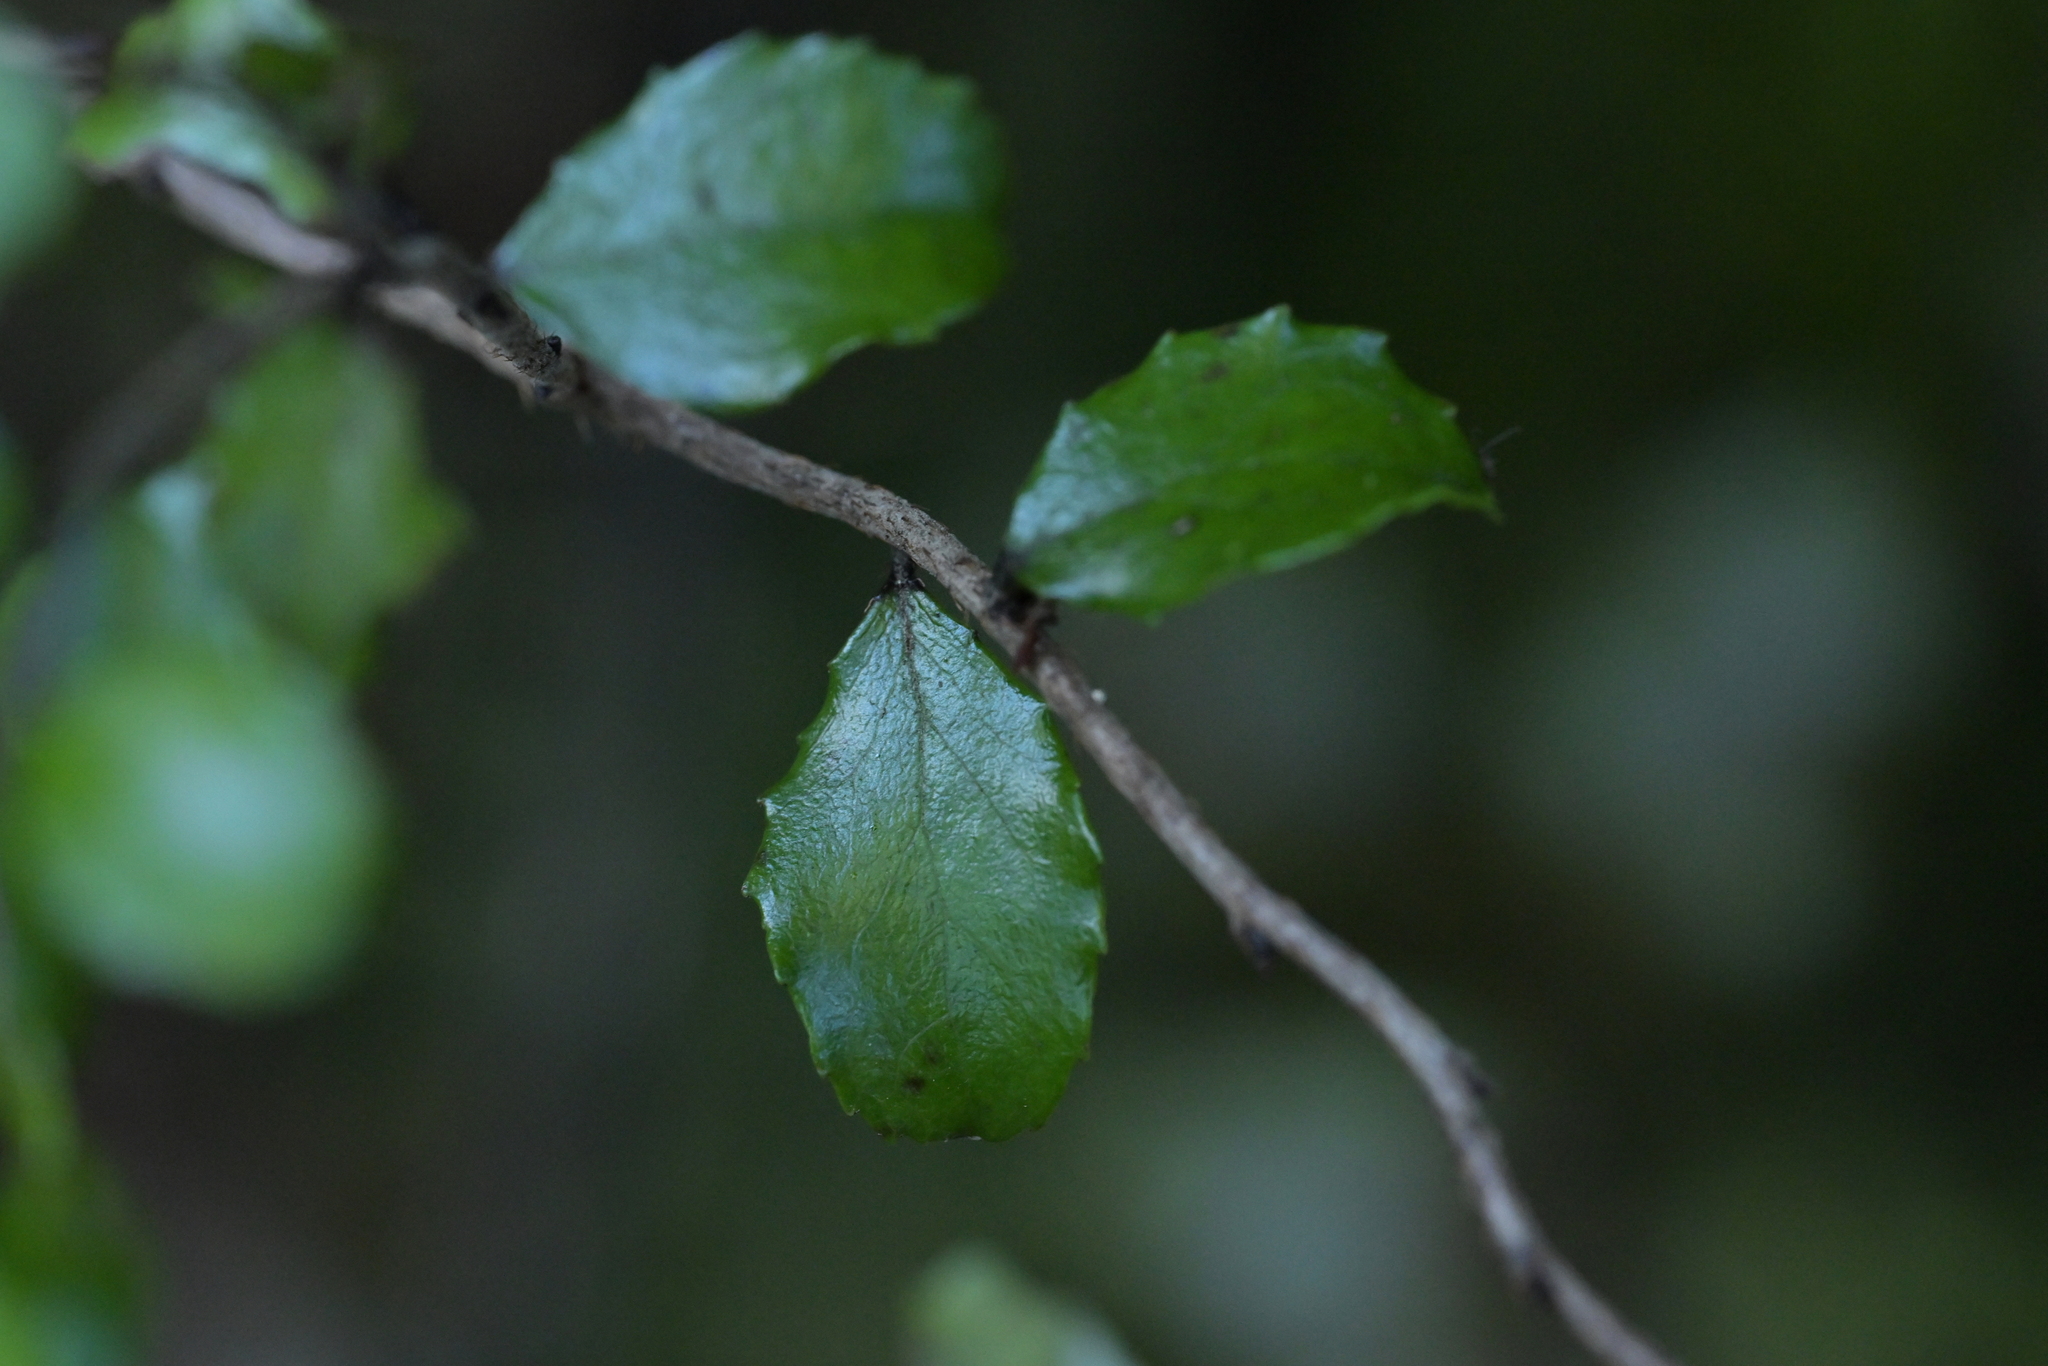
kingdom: Plantae
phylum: Tracheophyta
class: Magnoliopsida
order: Ericales
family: Ericaceae
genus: Gaultheria
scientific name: Gaultheria antipoda
